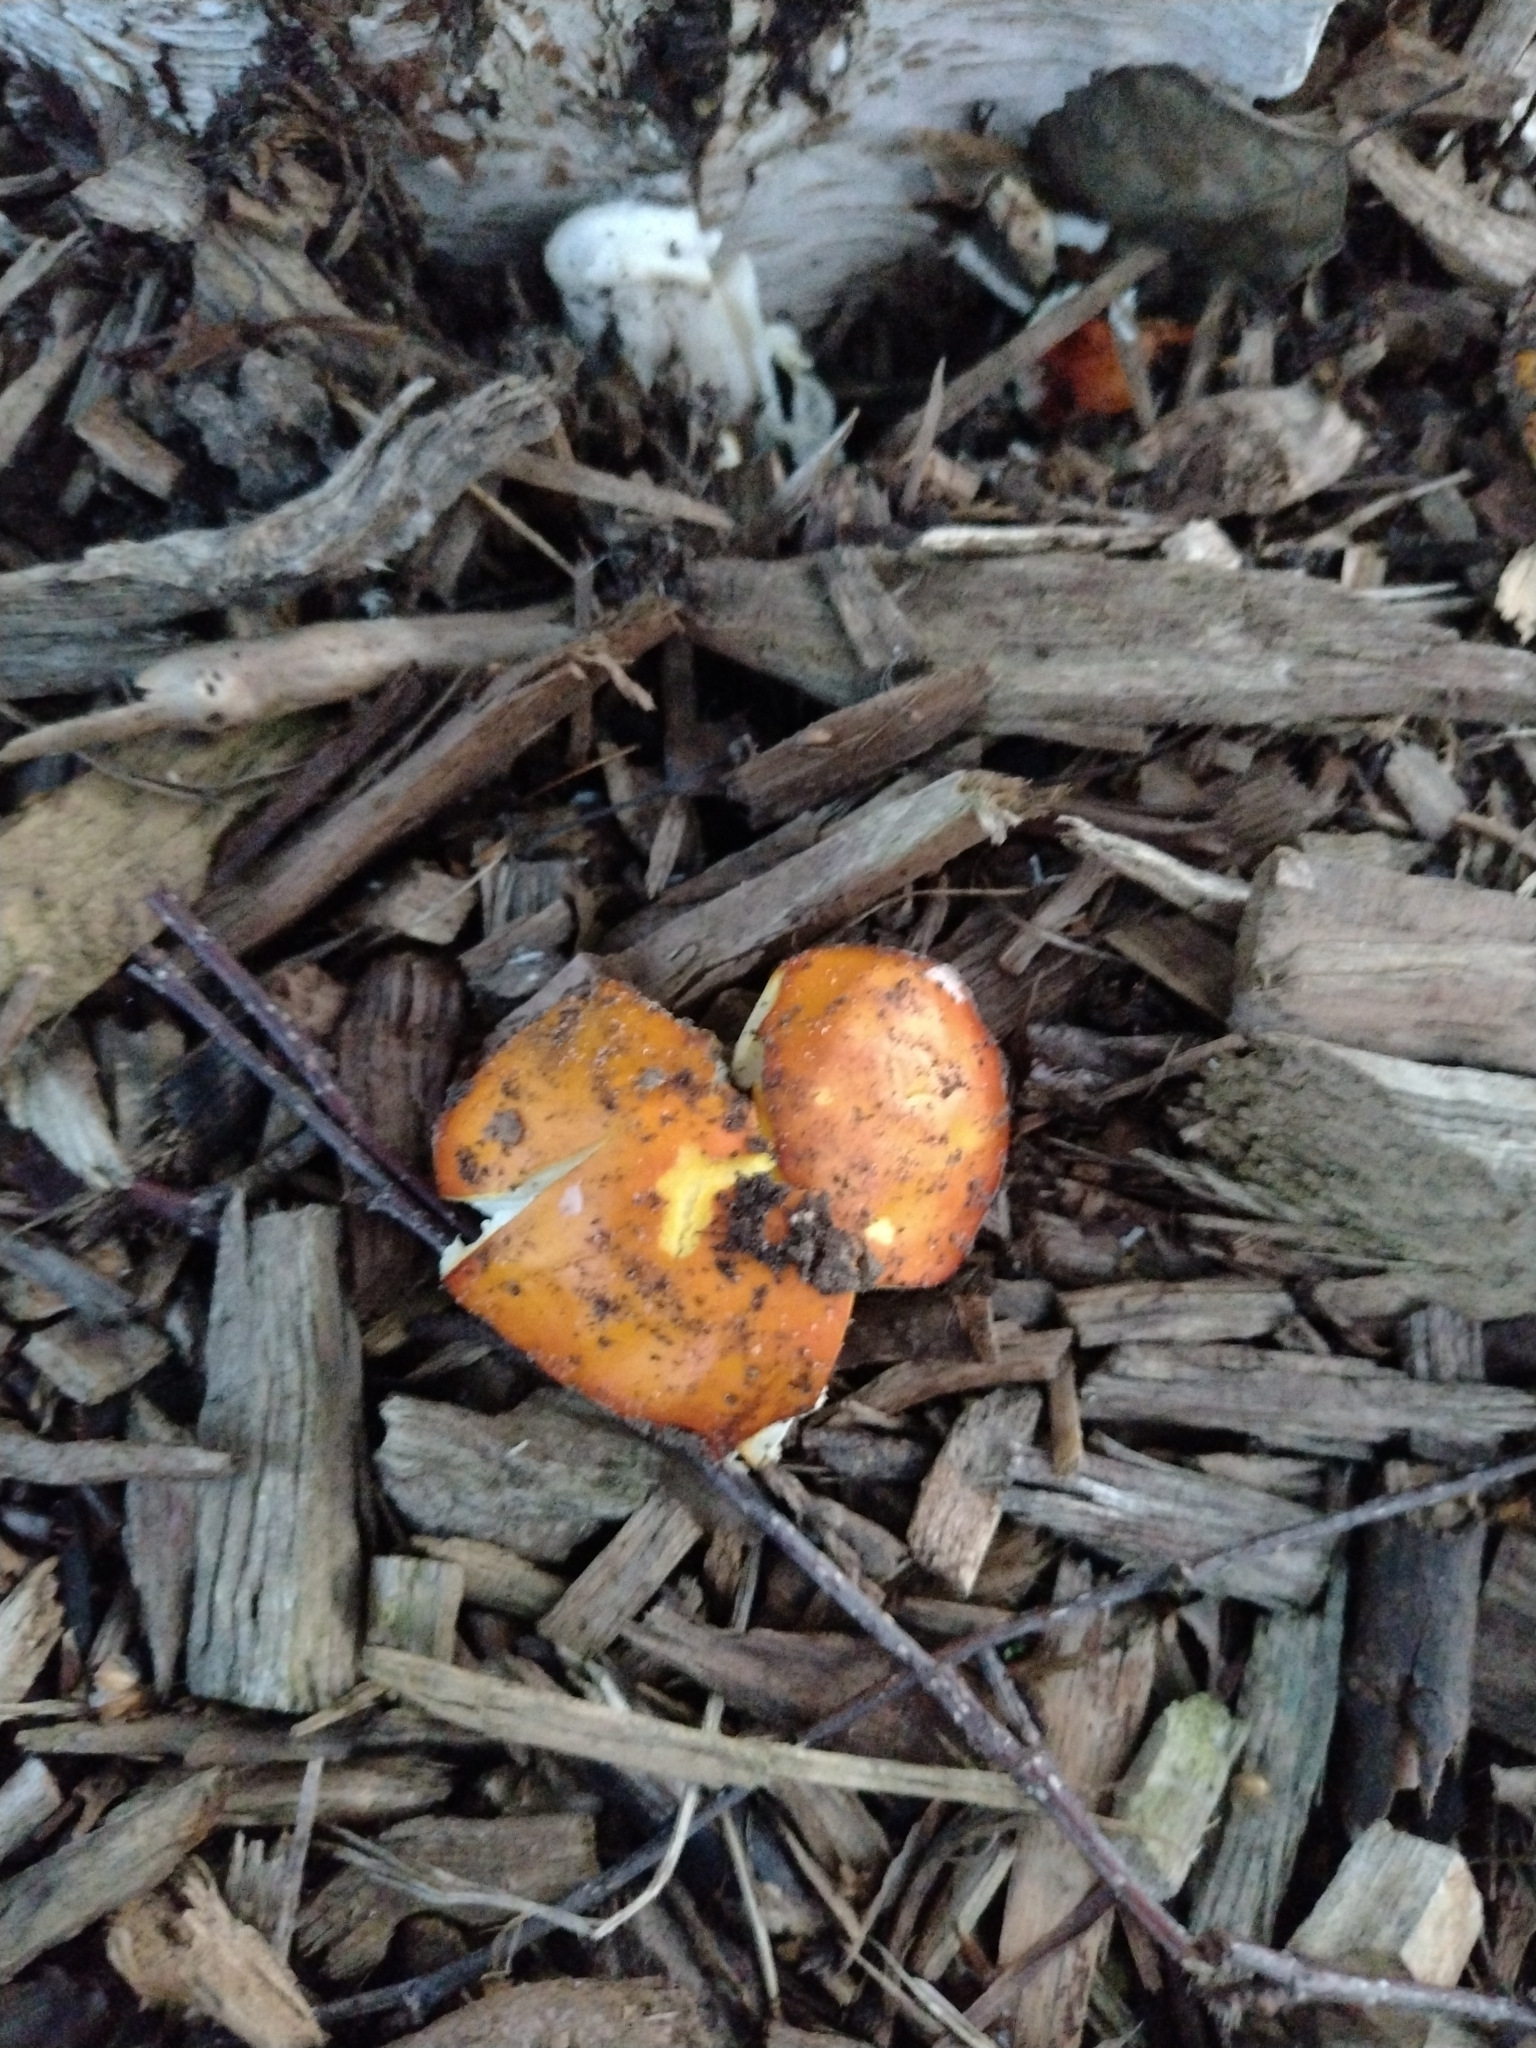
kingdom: Fungi
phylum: Basidiomycota
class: Agaricomycetes
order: Agaricales
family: Amanitaceae
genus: Amanita
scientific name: Amanita muscaria
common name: Fly agaric
